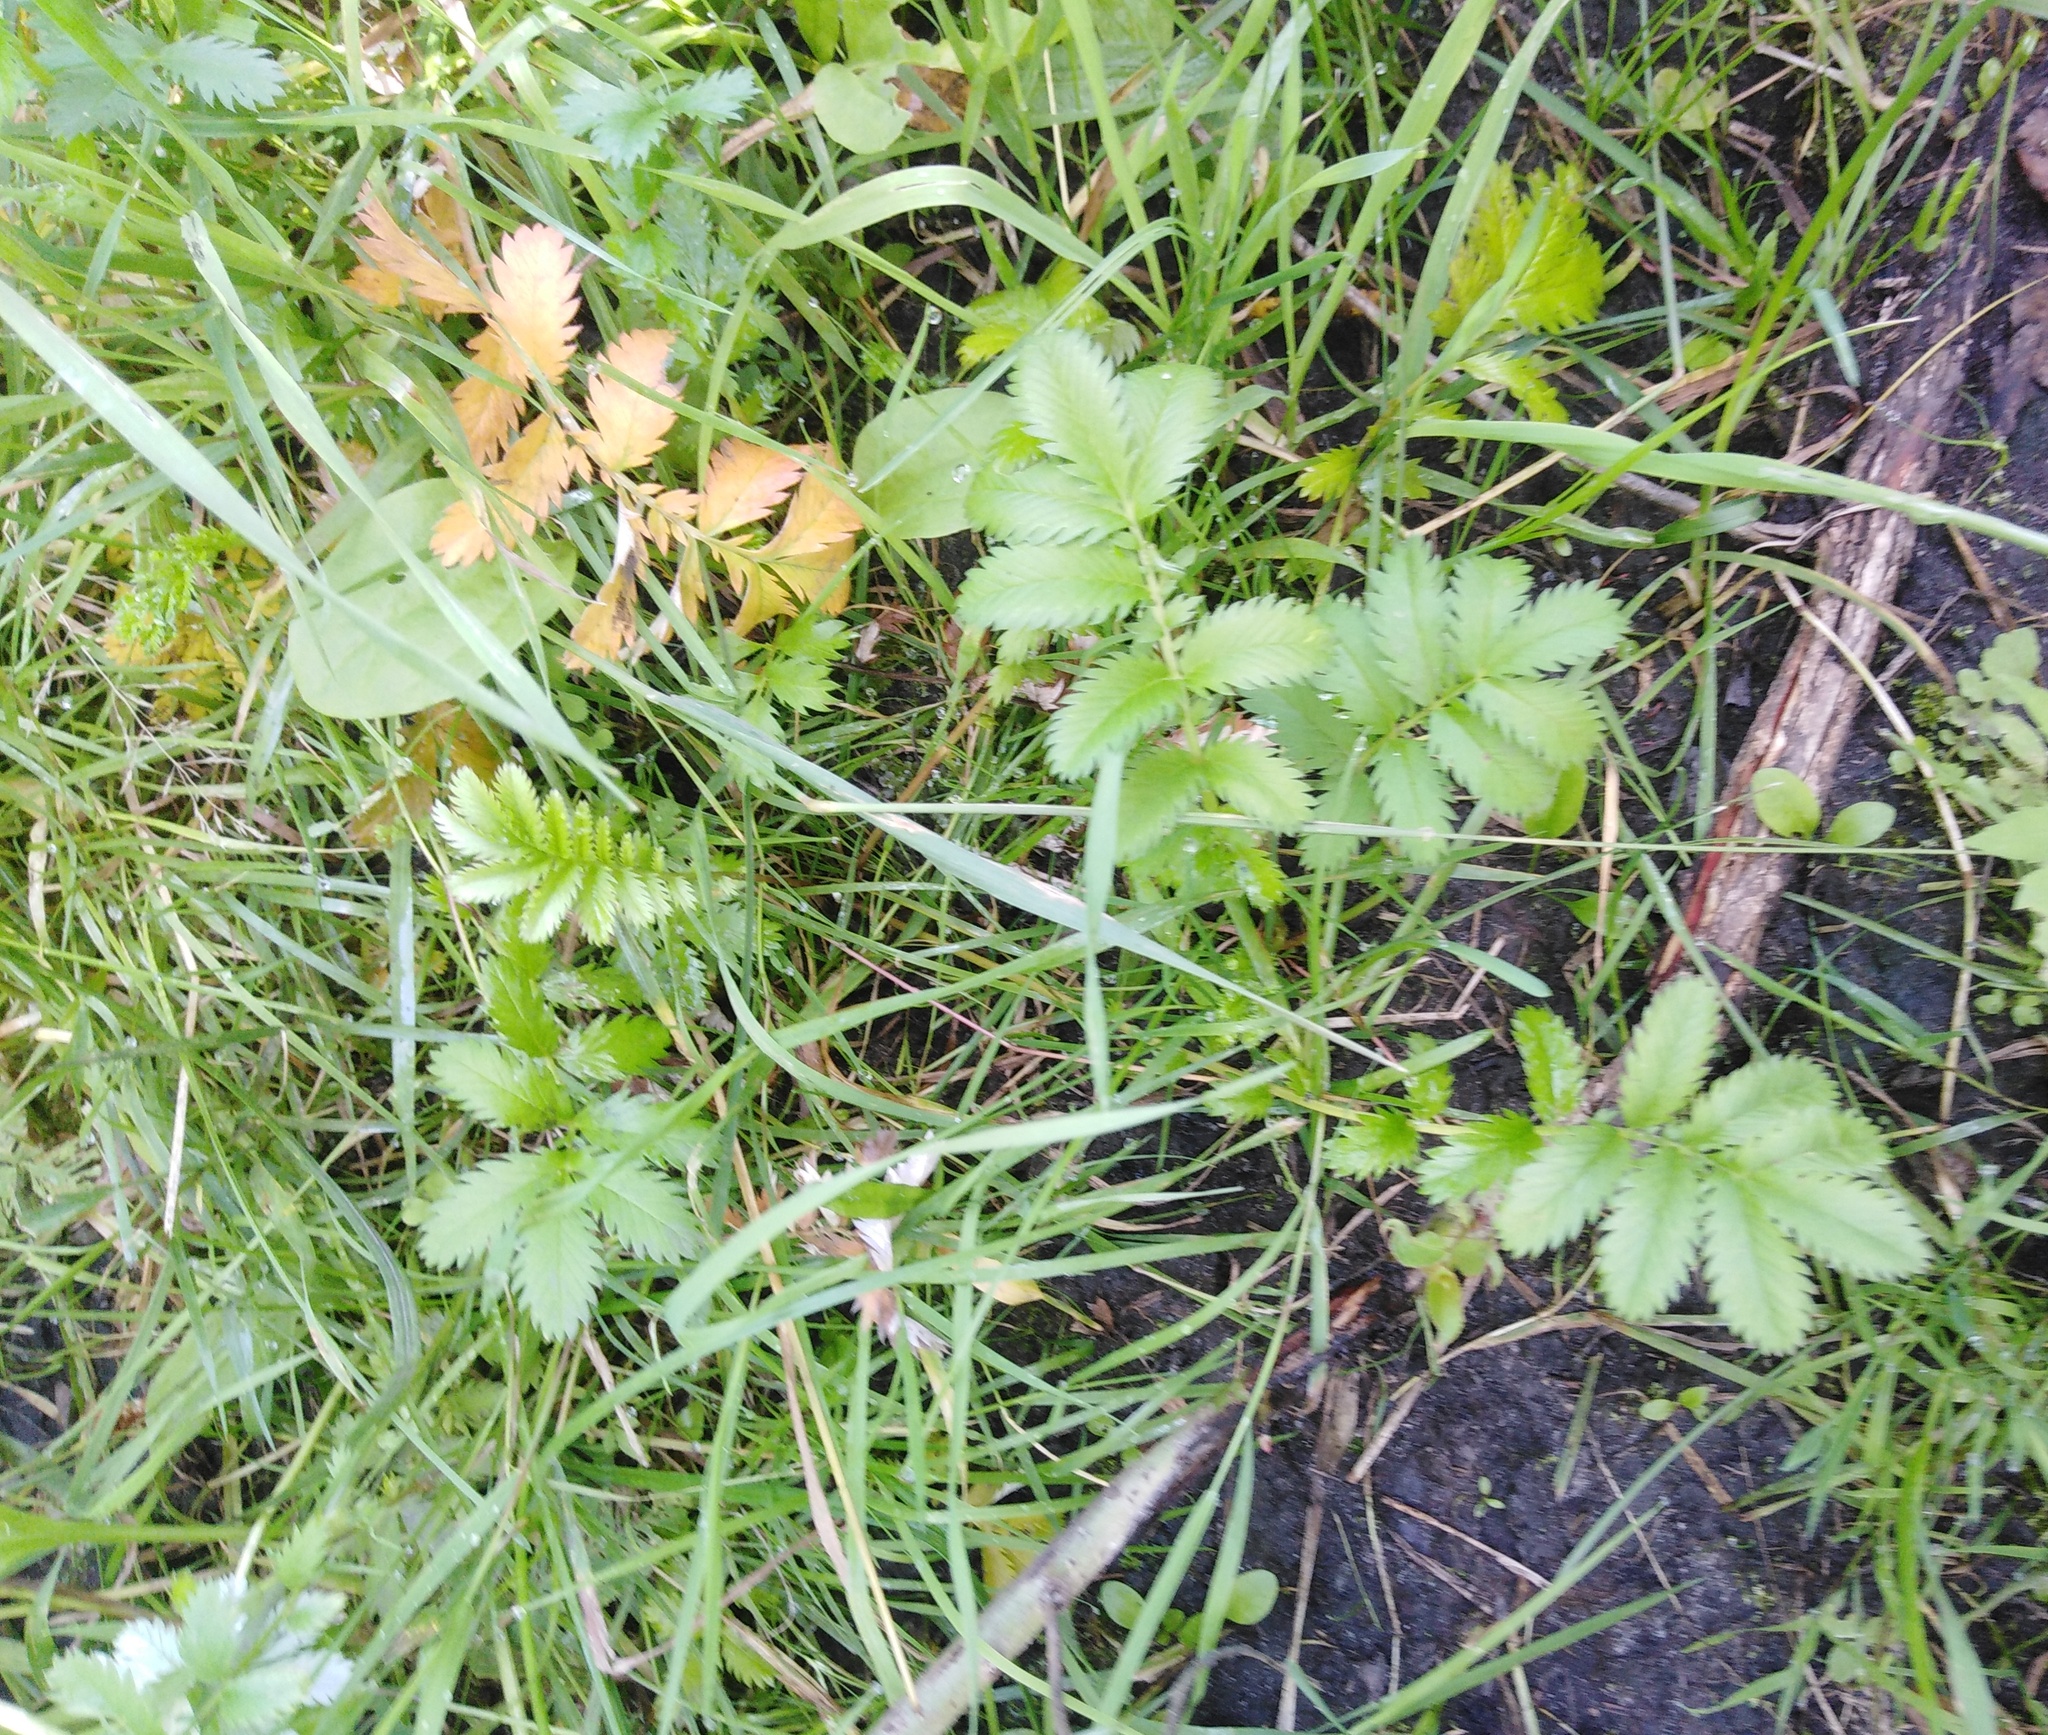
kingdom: Plantae
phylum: Tracheophyta
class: Magnoliopsida
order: Rosales
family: Rosaceae
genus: Argentina
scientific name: Argentina anserina
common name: Common silverweed
